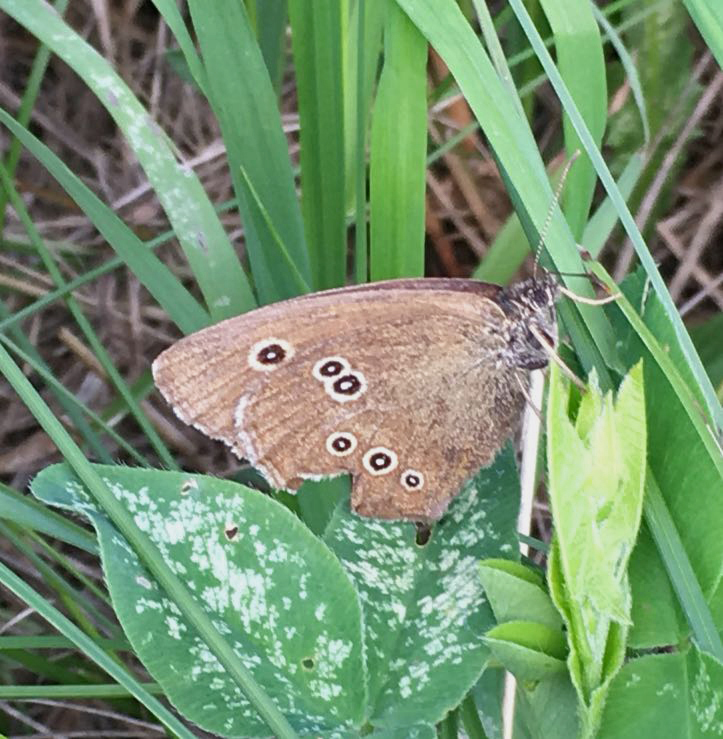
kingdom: Animalia
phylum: Arthropoda
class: Insecta
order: Lepidoptera
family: Nymphalidae
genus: Aphantopus
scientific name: Aphantopus hyperantus
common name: Ringlet
